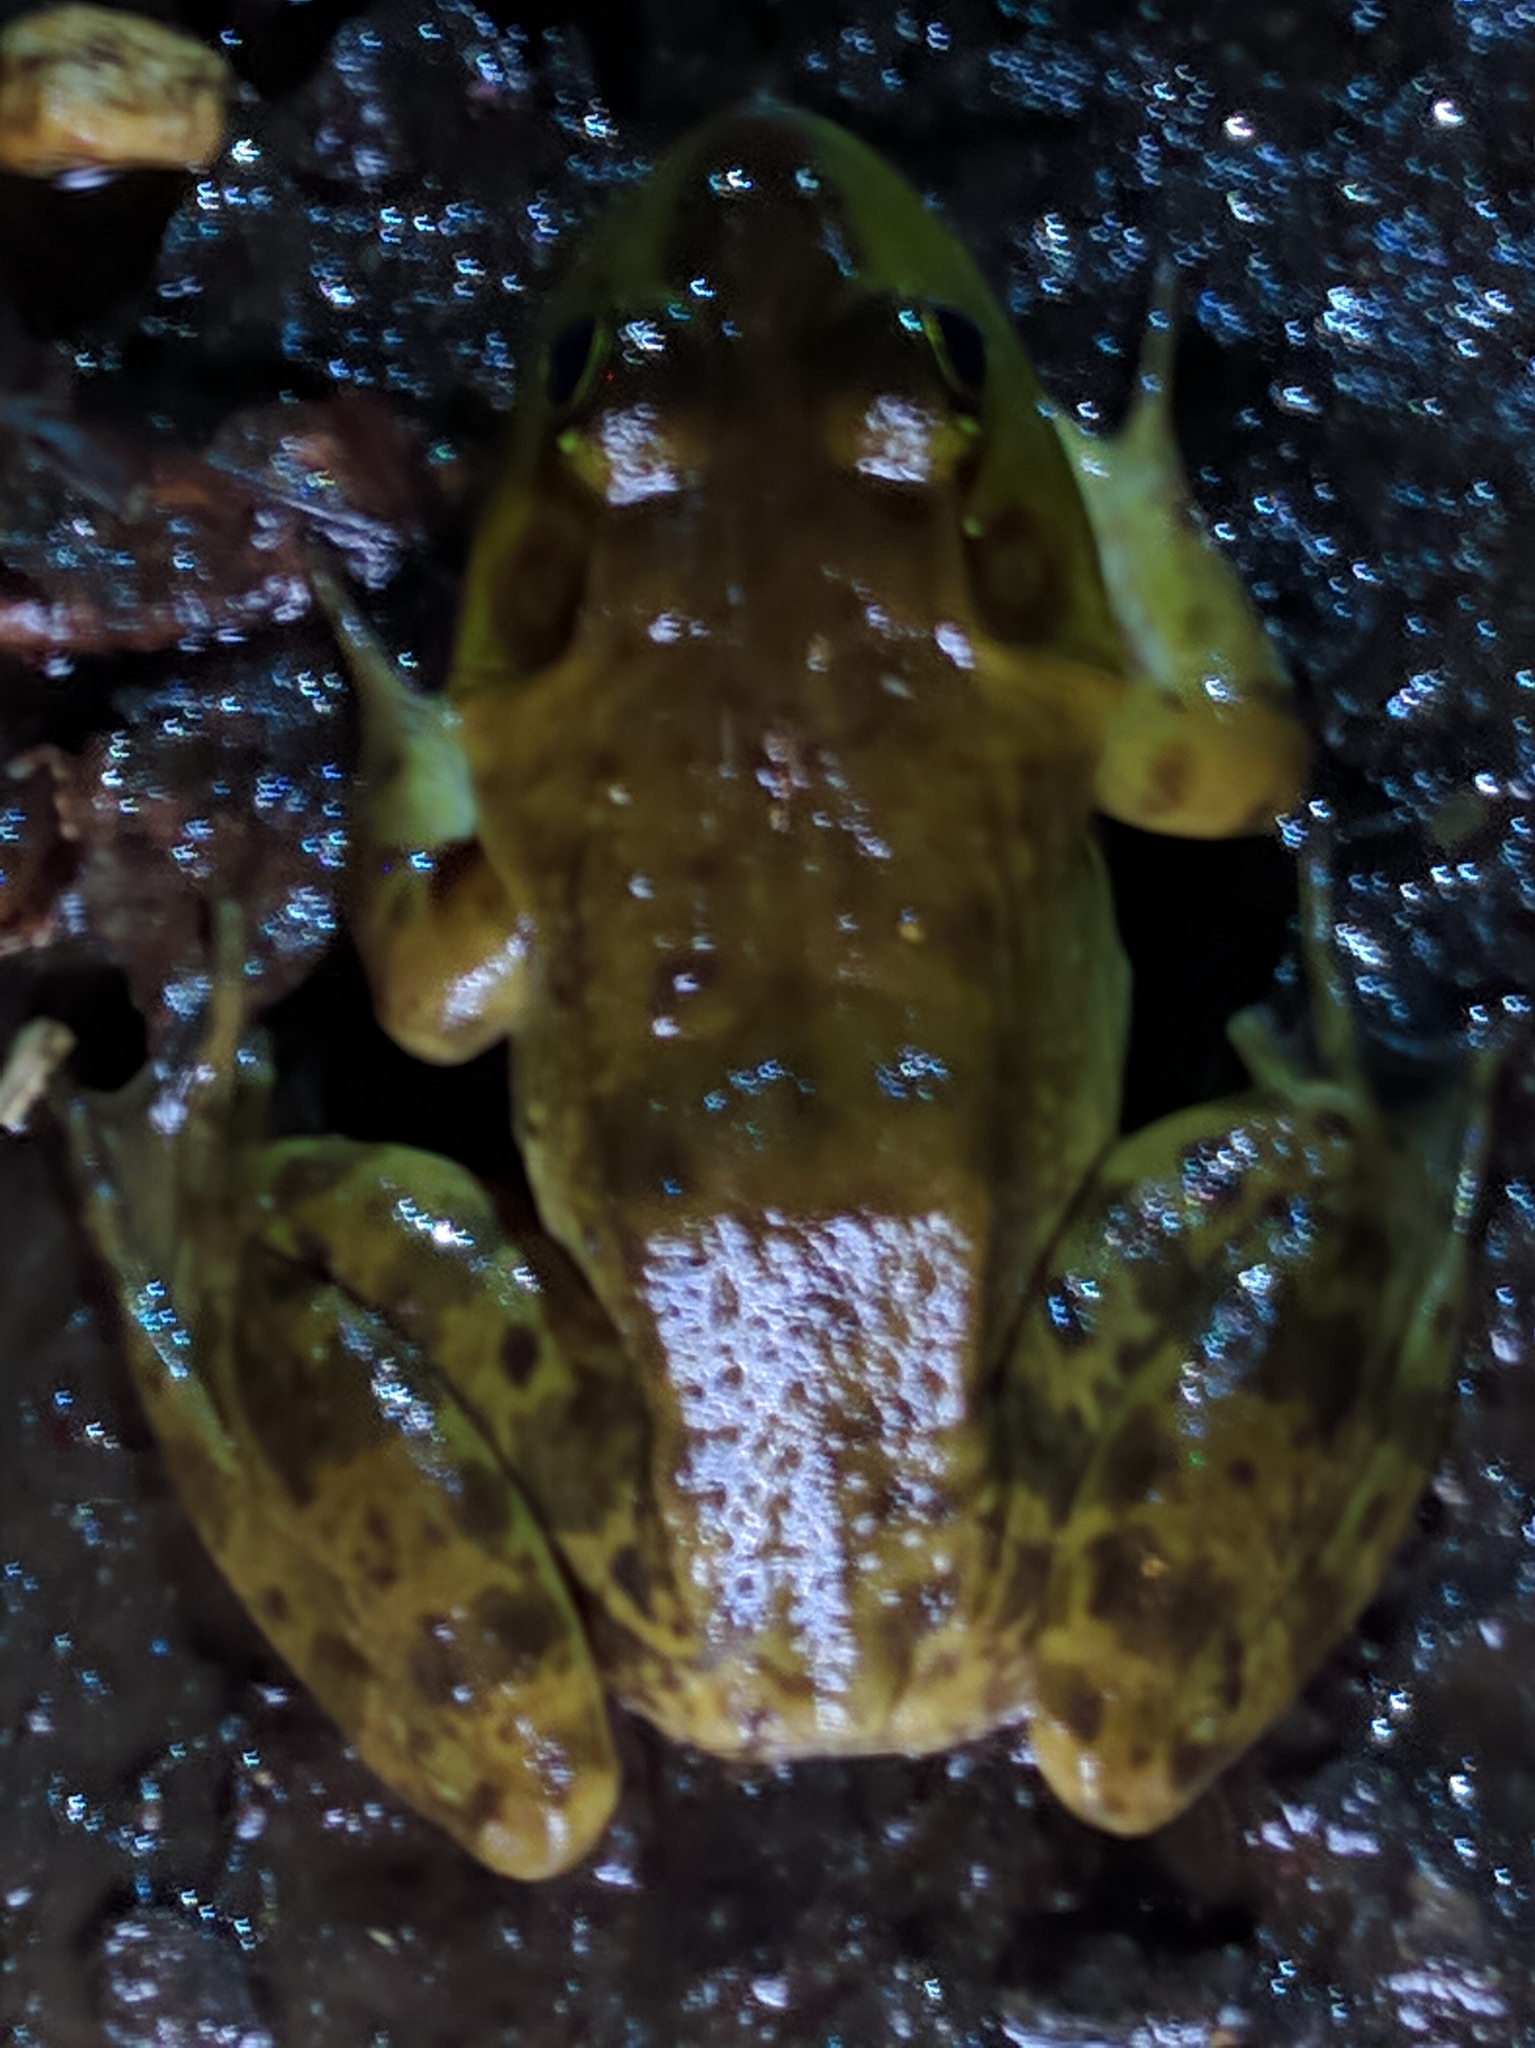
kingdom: Animalia
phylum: Chordata
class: Amphibia
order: Anura
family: Ranidae
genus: Lithobates
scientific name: Lithobates catesbeianus
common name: American bullfrog
